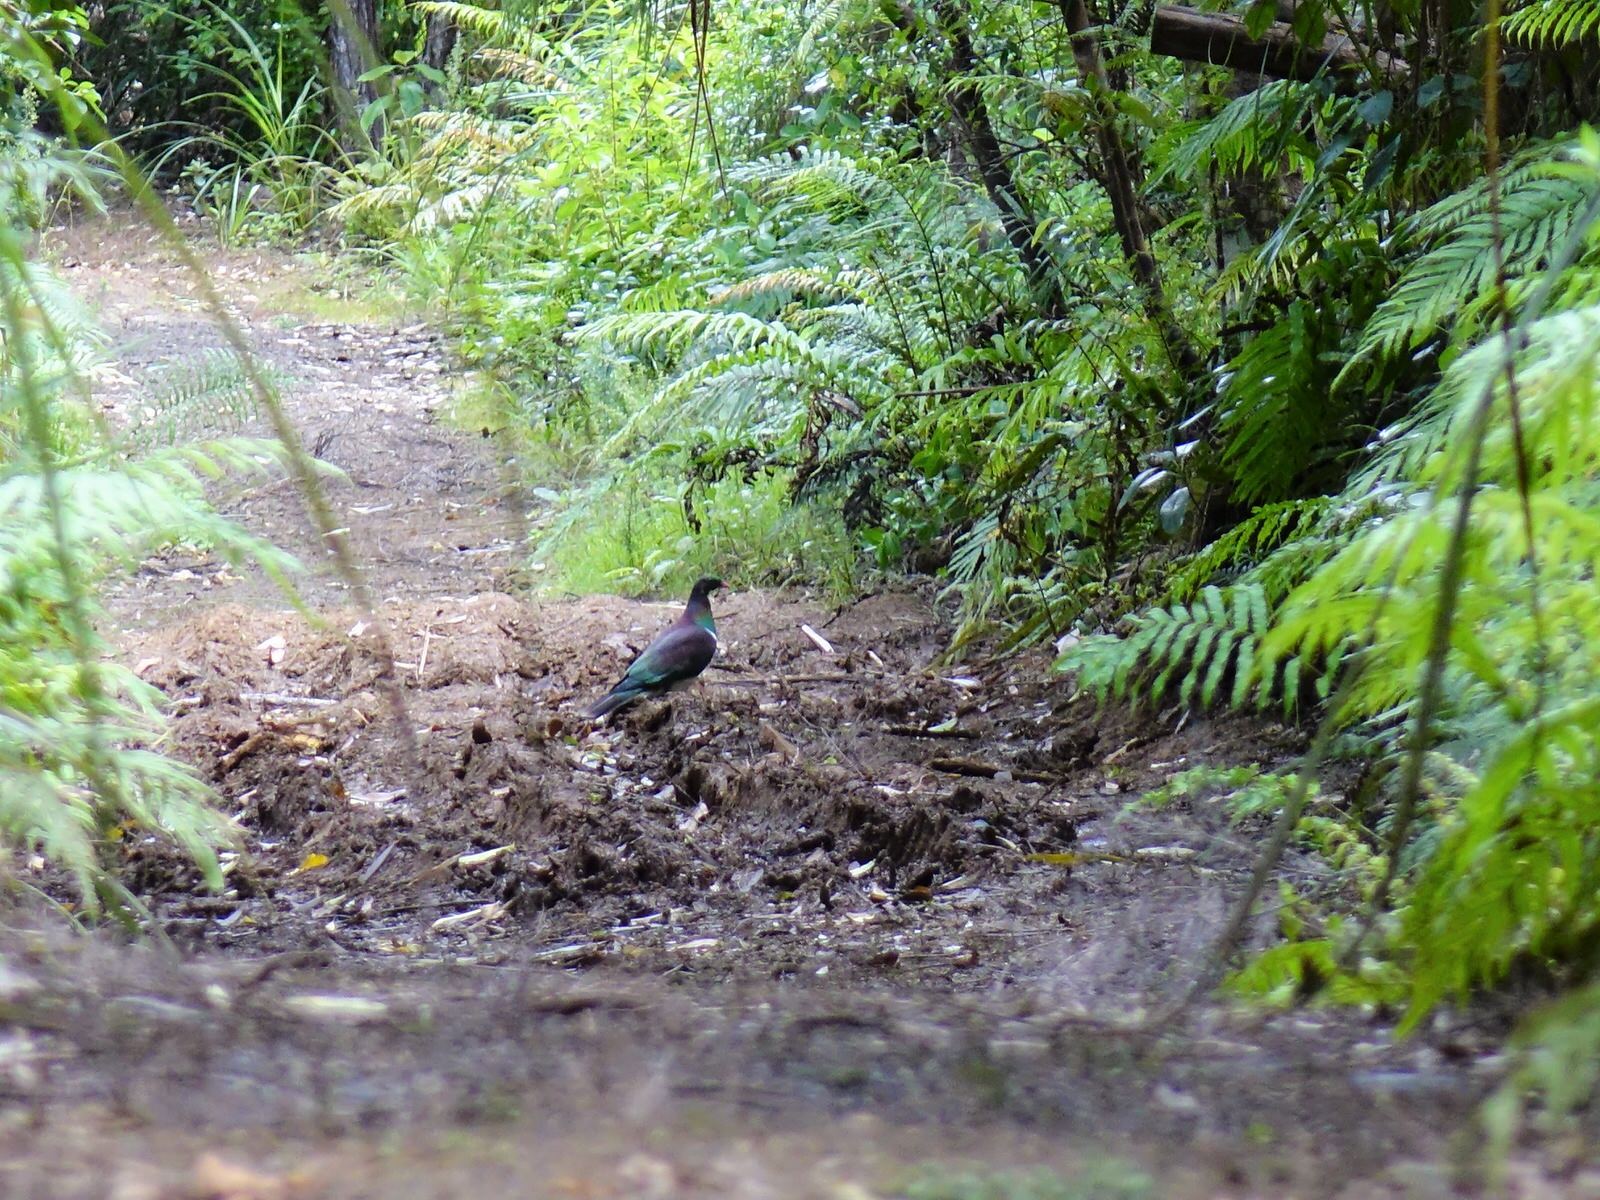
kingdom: Animalia
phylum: Chordata
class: Aves
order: Columbiformes
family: Columbidae
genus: Hemiphaga
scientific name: Hemiphaga novaeseelandiae
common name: New zealand pigeon
